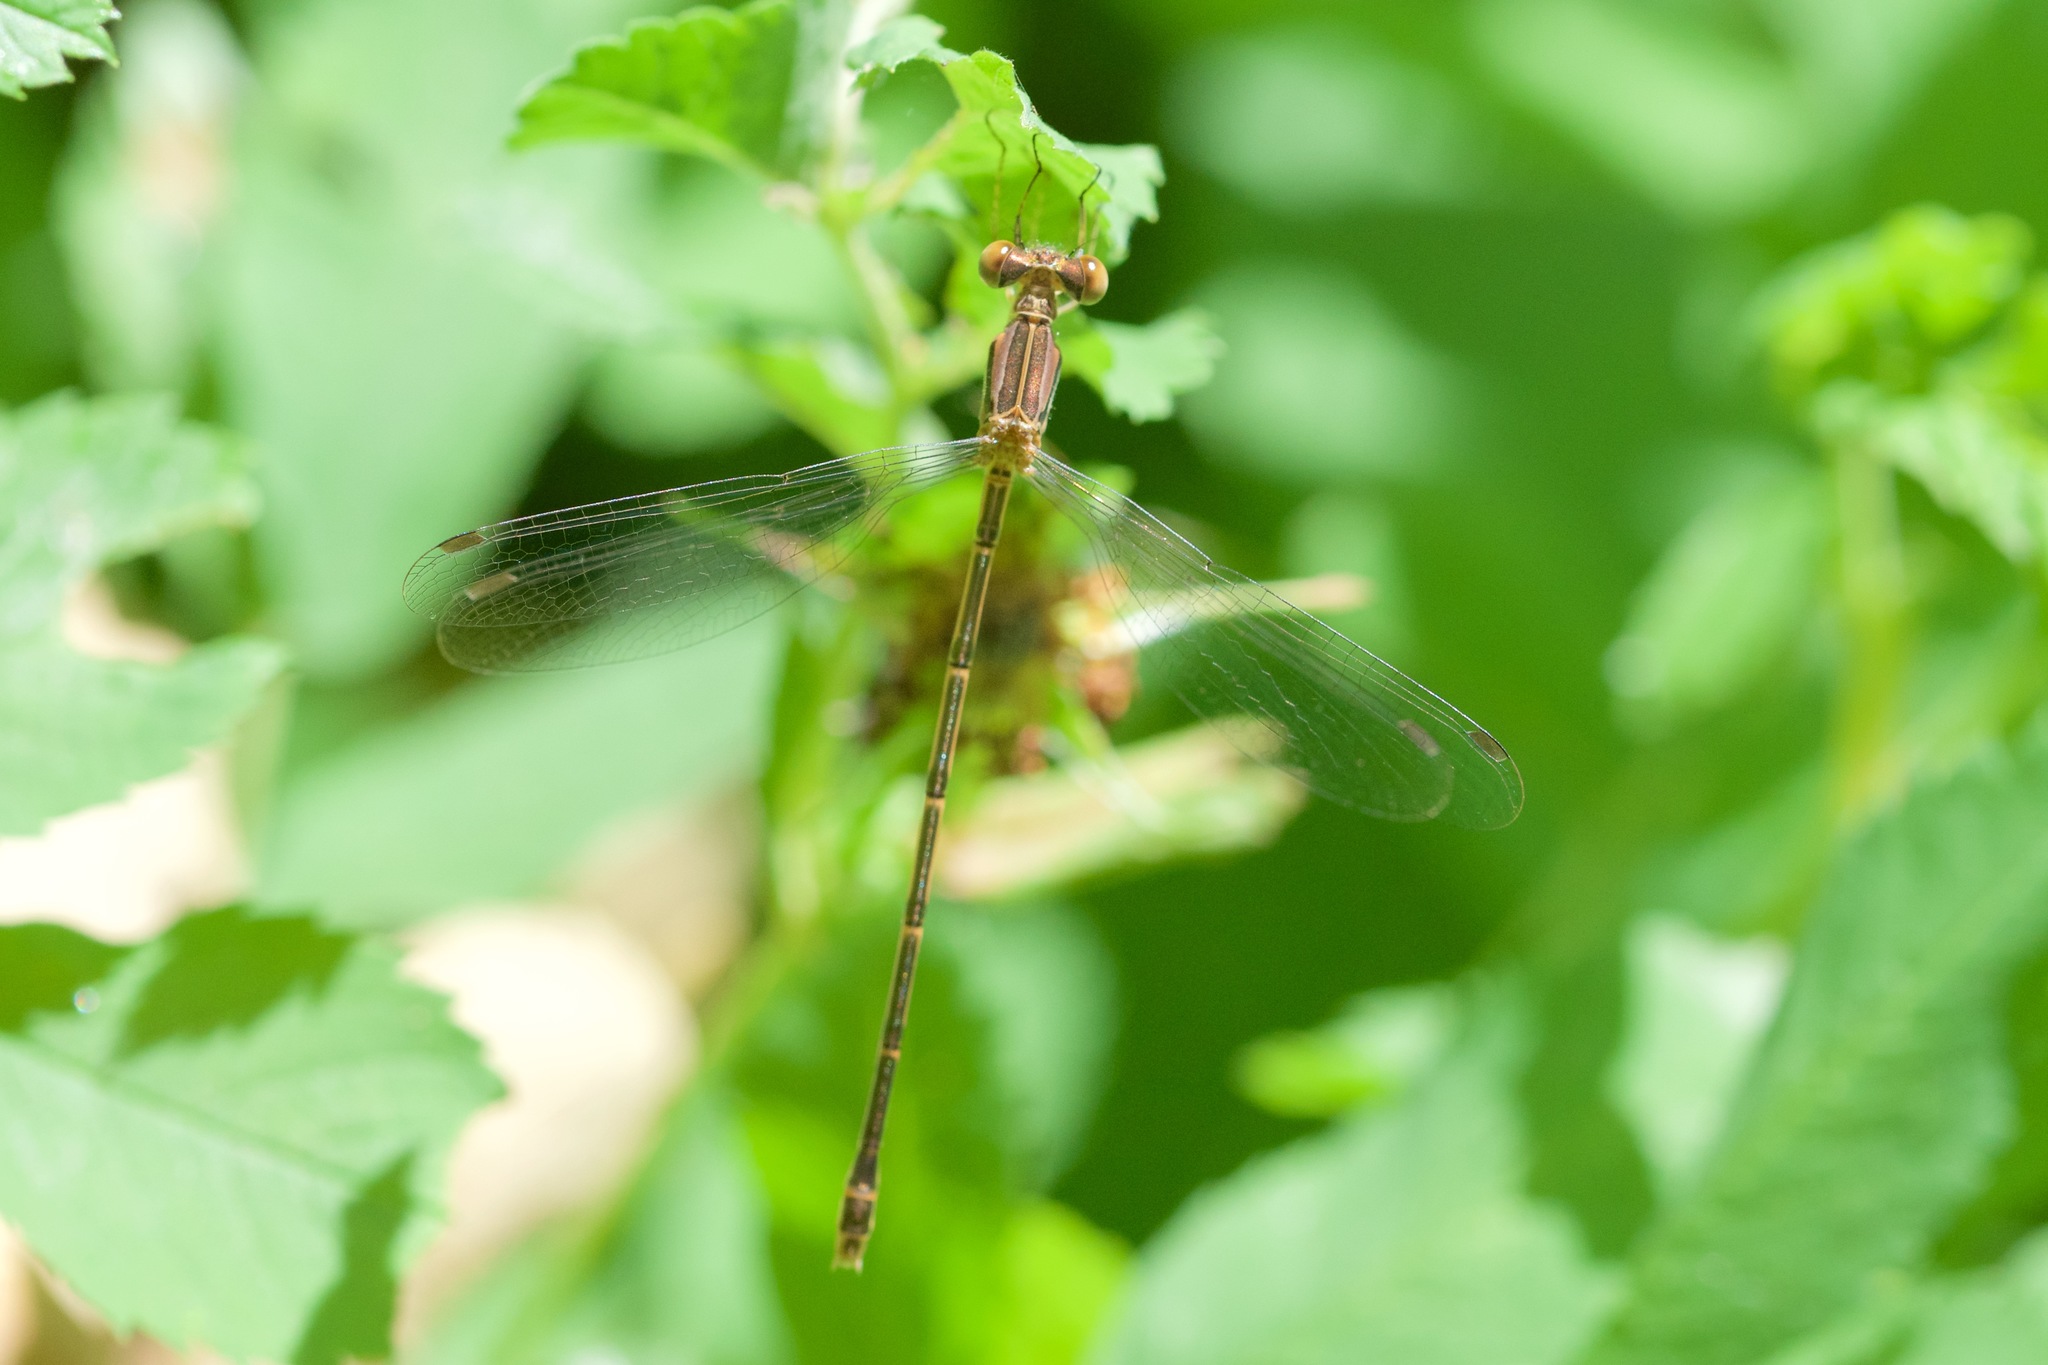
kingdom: Animalia
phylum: Arthropoda
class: Insecta
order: Odonata
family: Lestidae
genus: Lestes
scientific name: Lestes rectangularis
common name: Slender spreadwing
